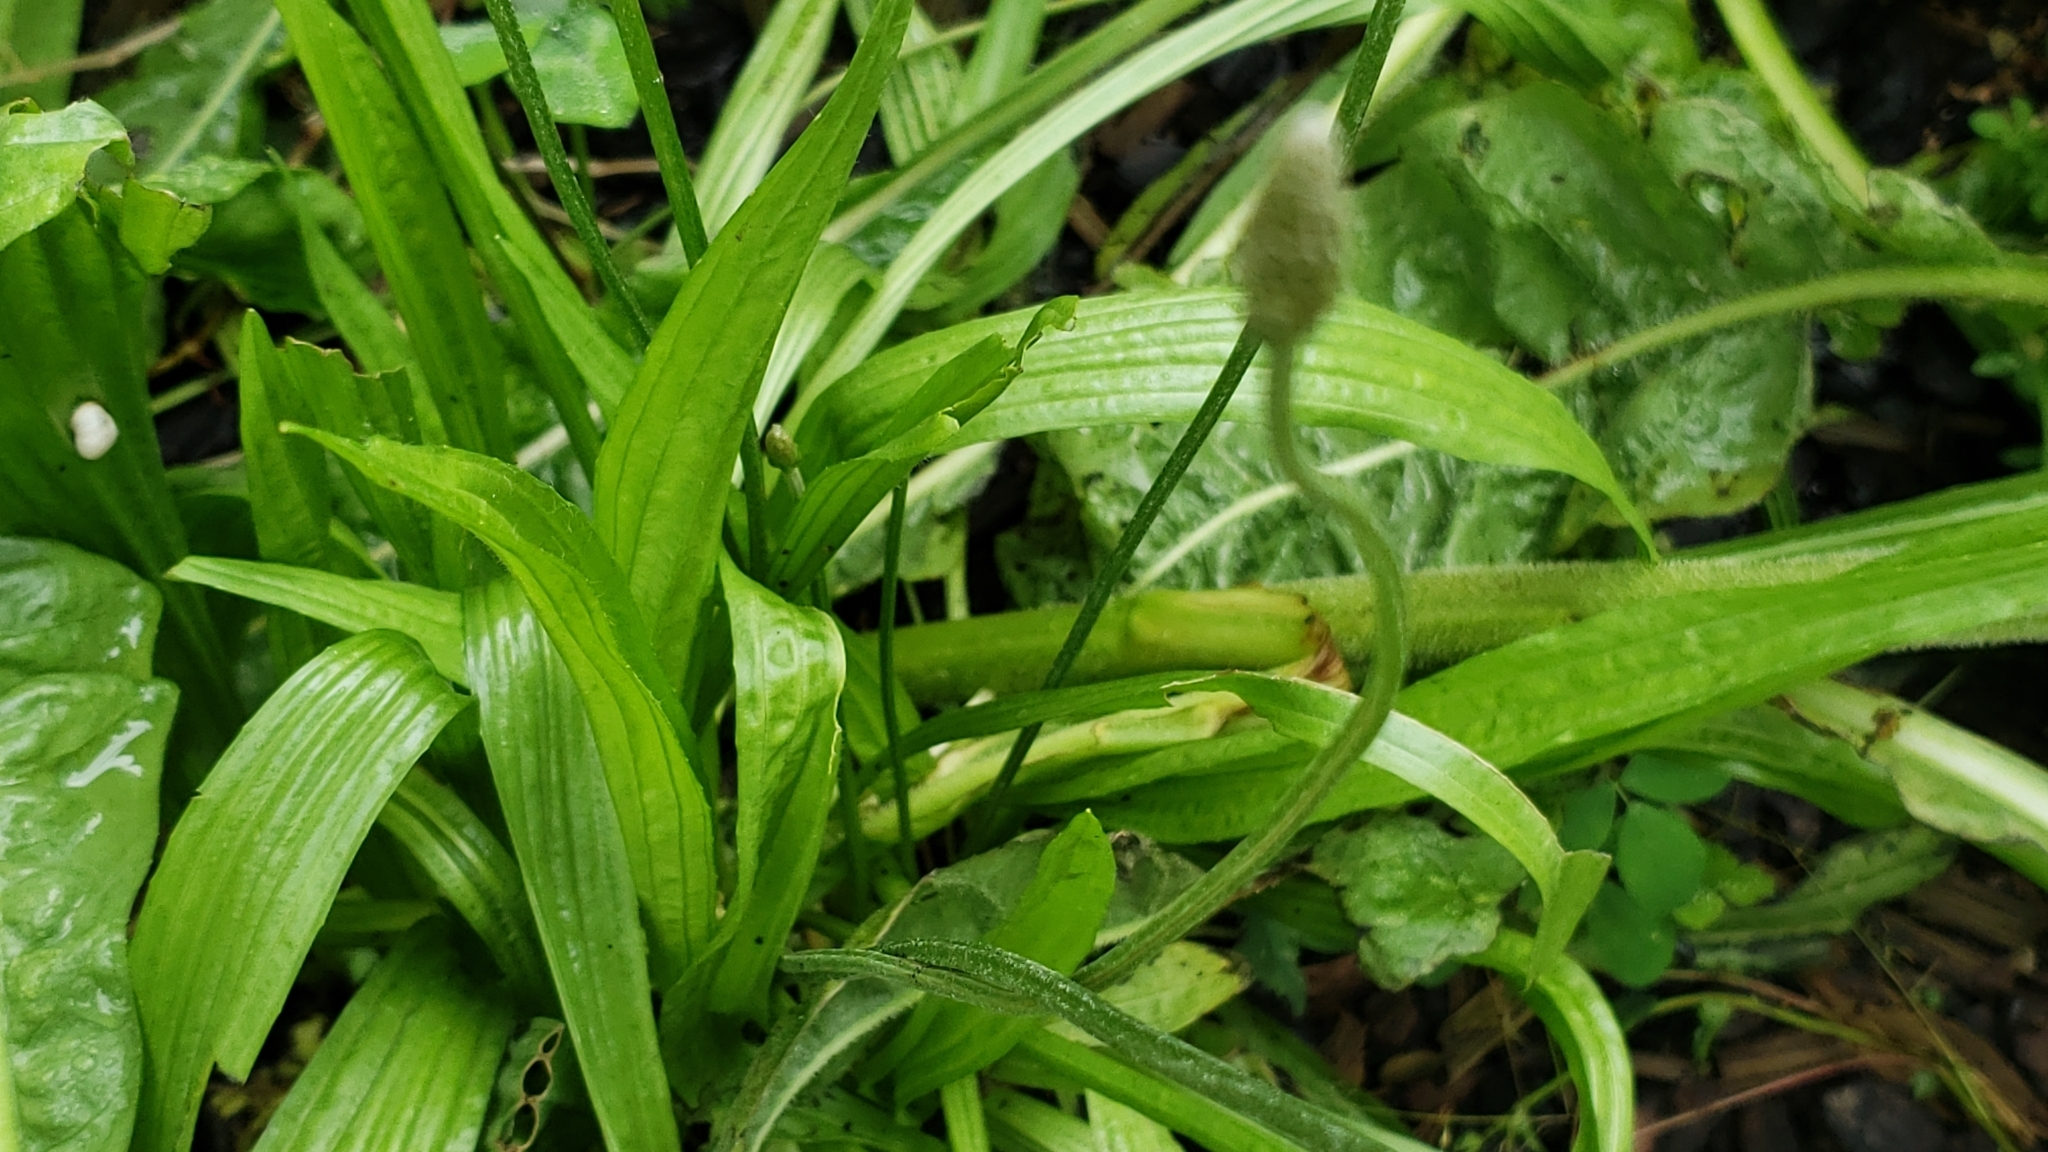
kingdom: Plantae
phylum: Tracheophyta
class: Magnoliopsida
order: Lamiales
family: Plantaginaceae
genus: Plantago
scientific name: Plantago lanceolata
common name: Ribwort plantain
